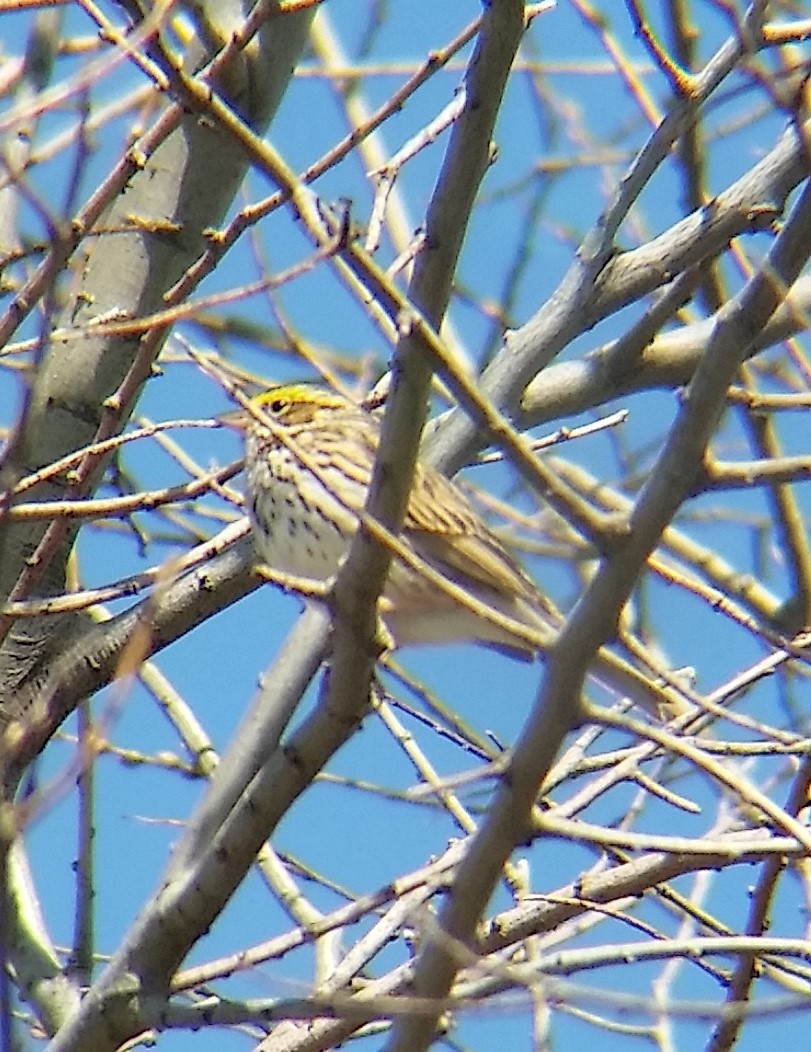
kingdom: Animalia
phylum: Chordata
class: Aves
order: Passeriformes
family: Passerellidae
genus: Passerculus
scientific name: Passerculus sandwichensis
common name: Savannah sparrow
